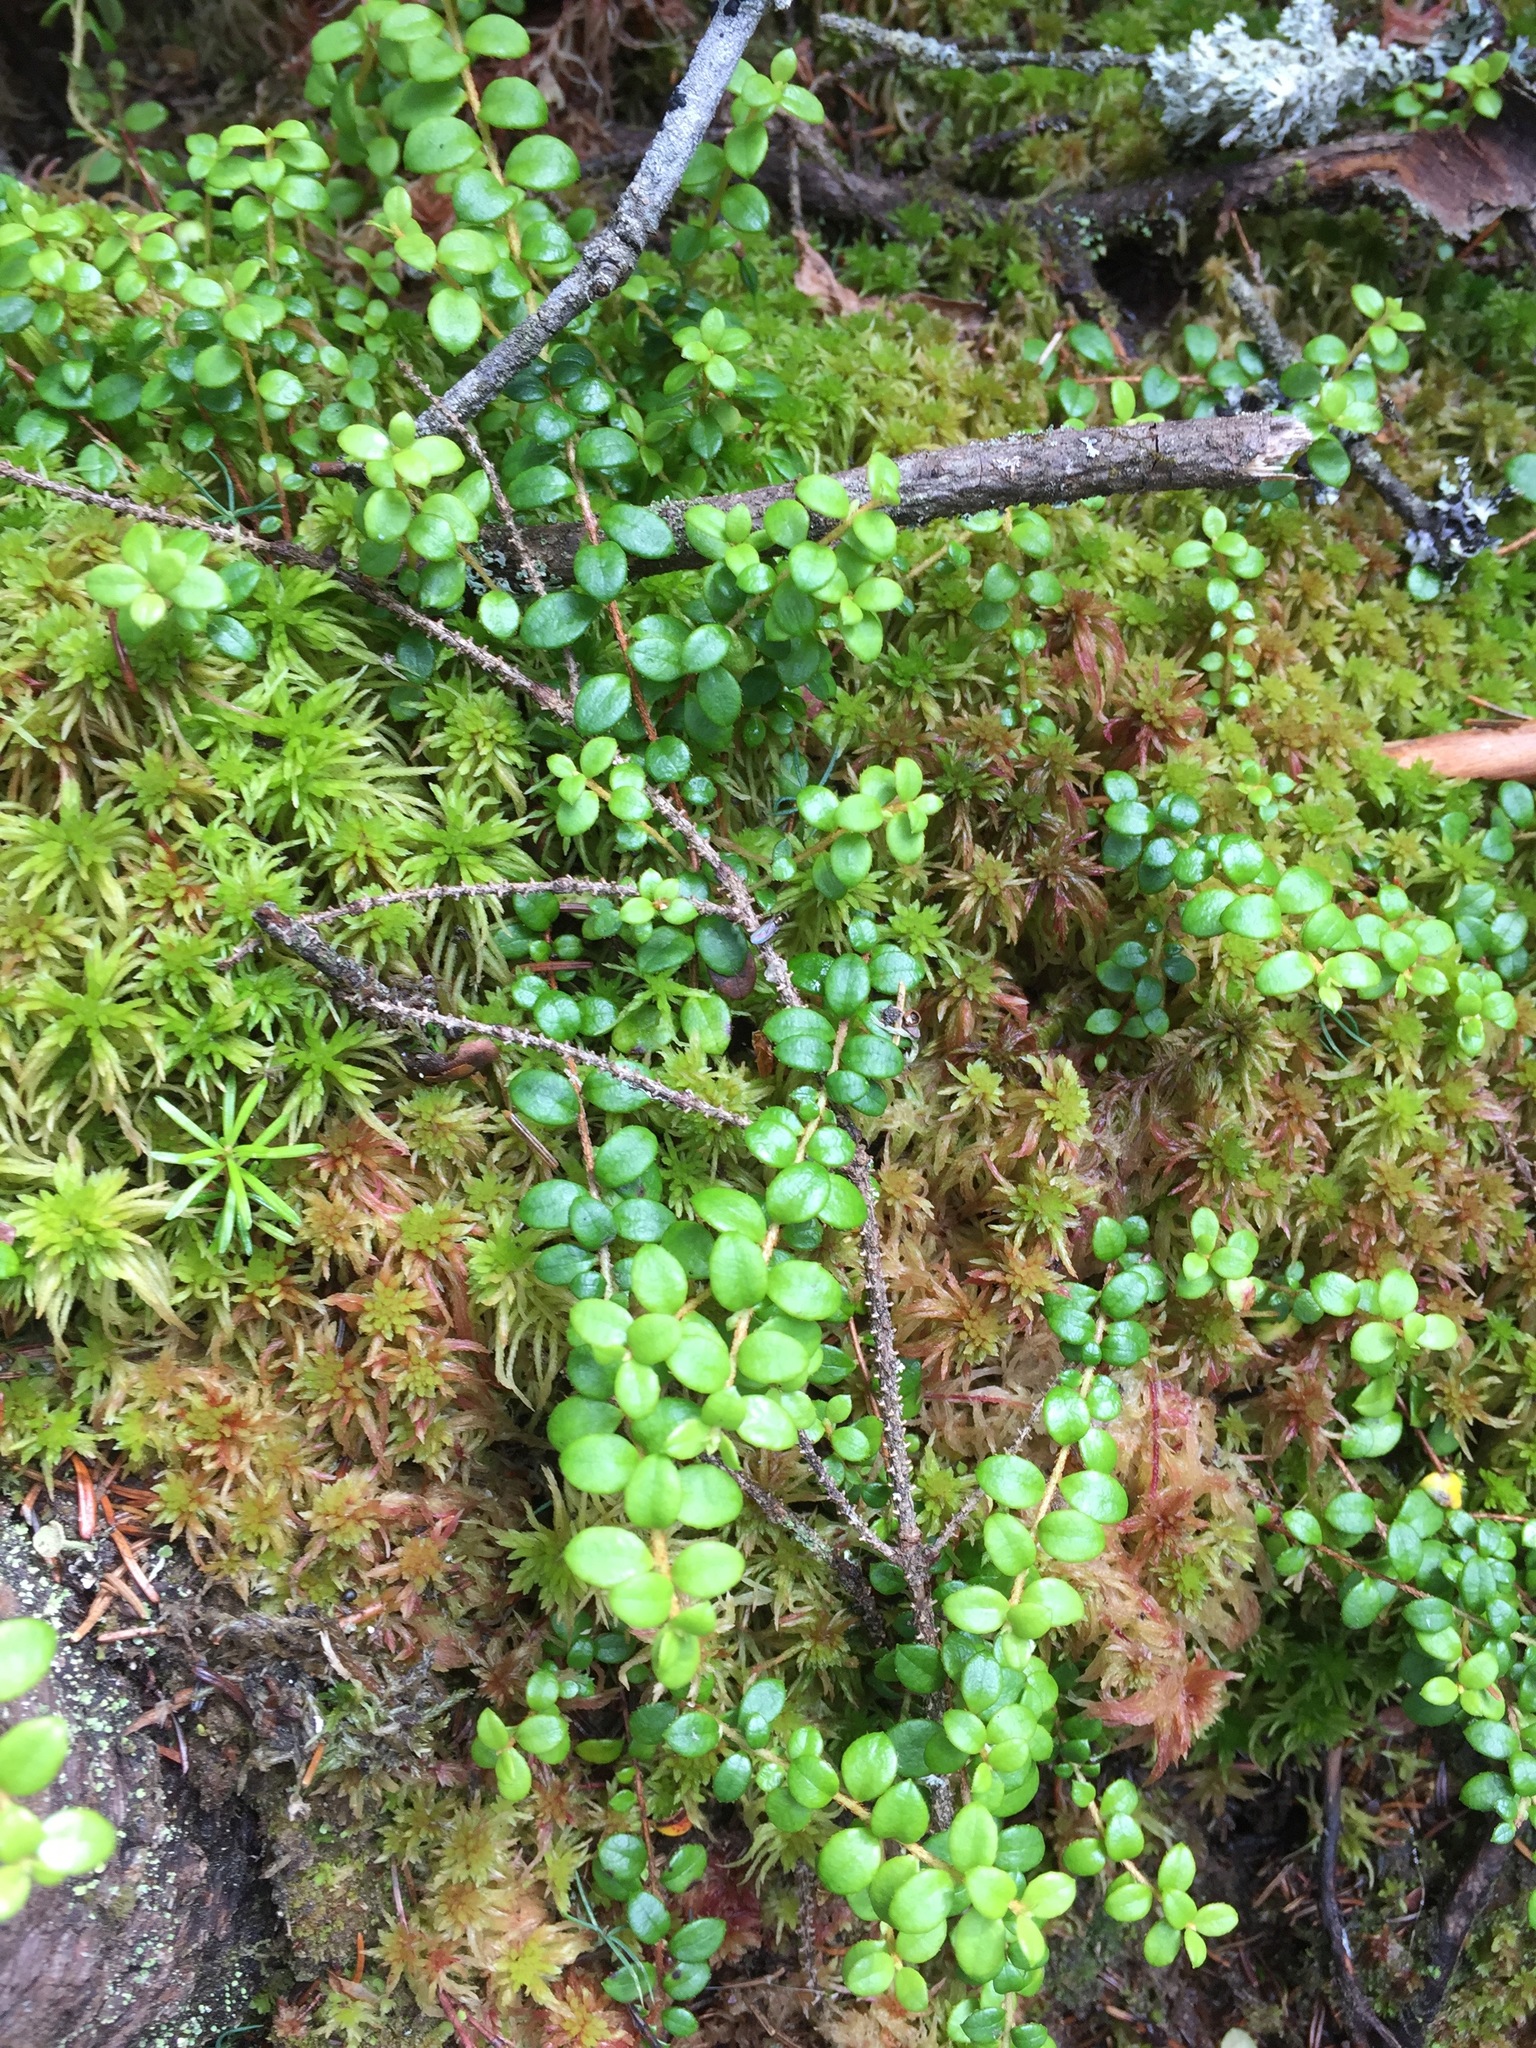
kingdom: Plantae
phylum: Tracheophyta
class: Magnoliopsida
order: Ericales
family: Ericaceae
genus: Gaultheria
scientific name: Gaultheria hispidula
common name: Cancer wintergreen
